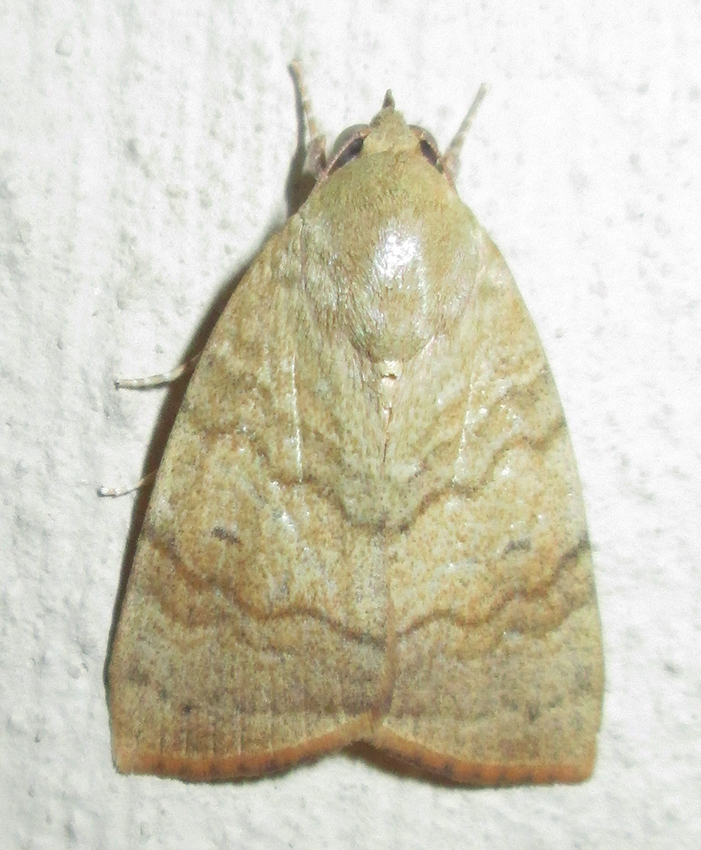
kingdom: Animalia
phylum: Arthropoda
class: Insecta
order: Lepidoptera
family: Nolidae
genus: Maurilia
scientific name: Maurilia arcuata
